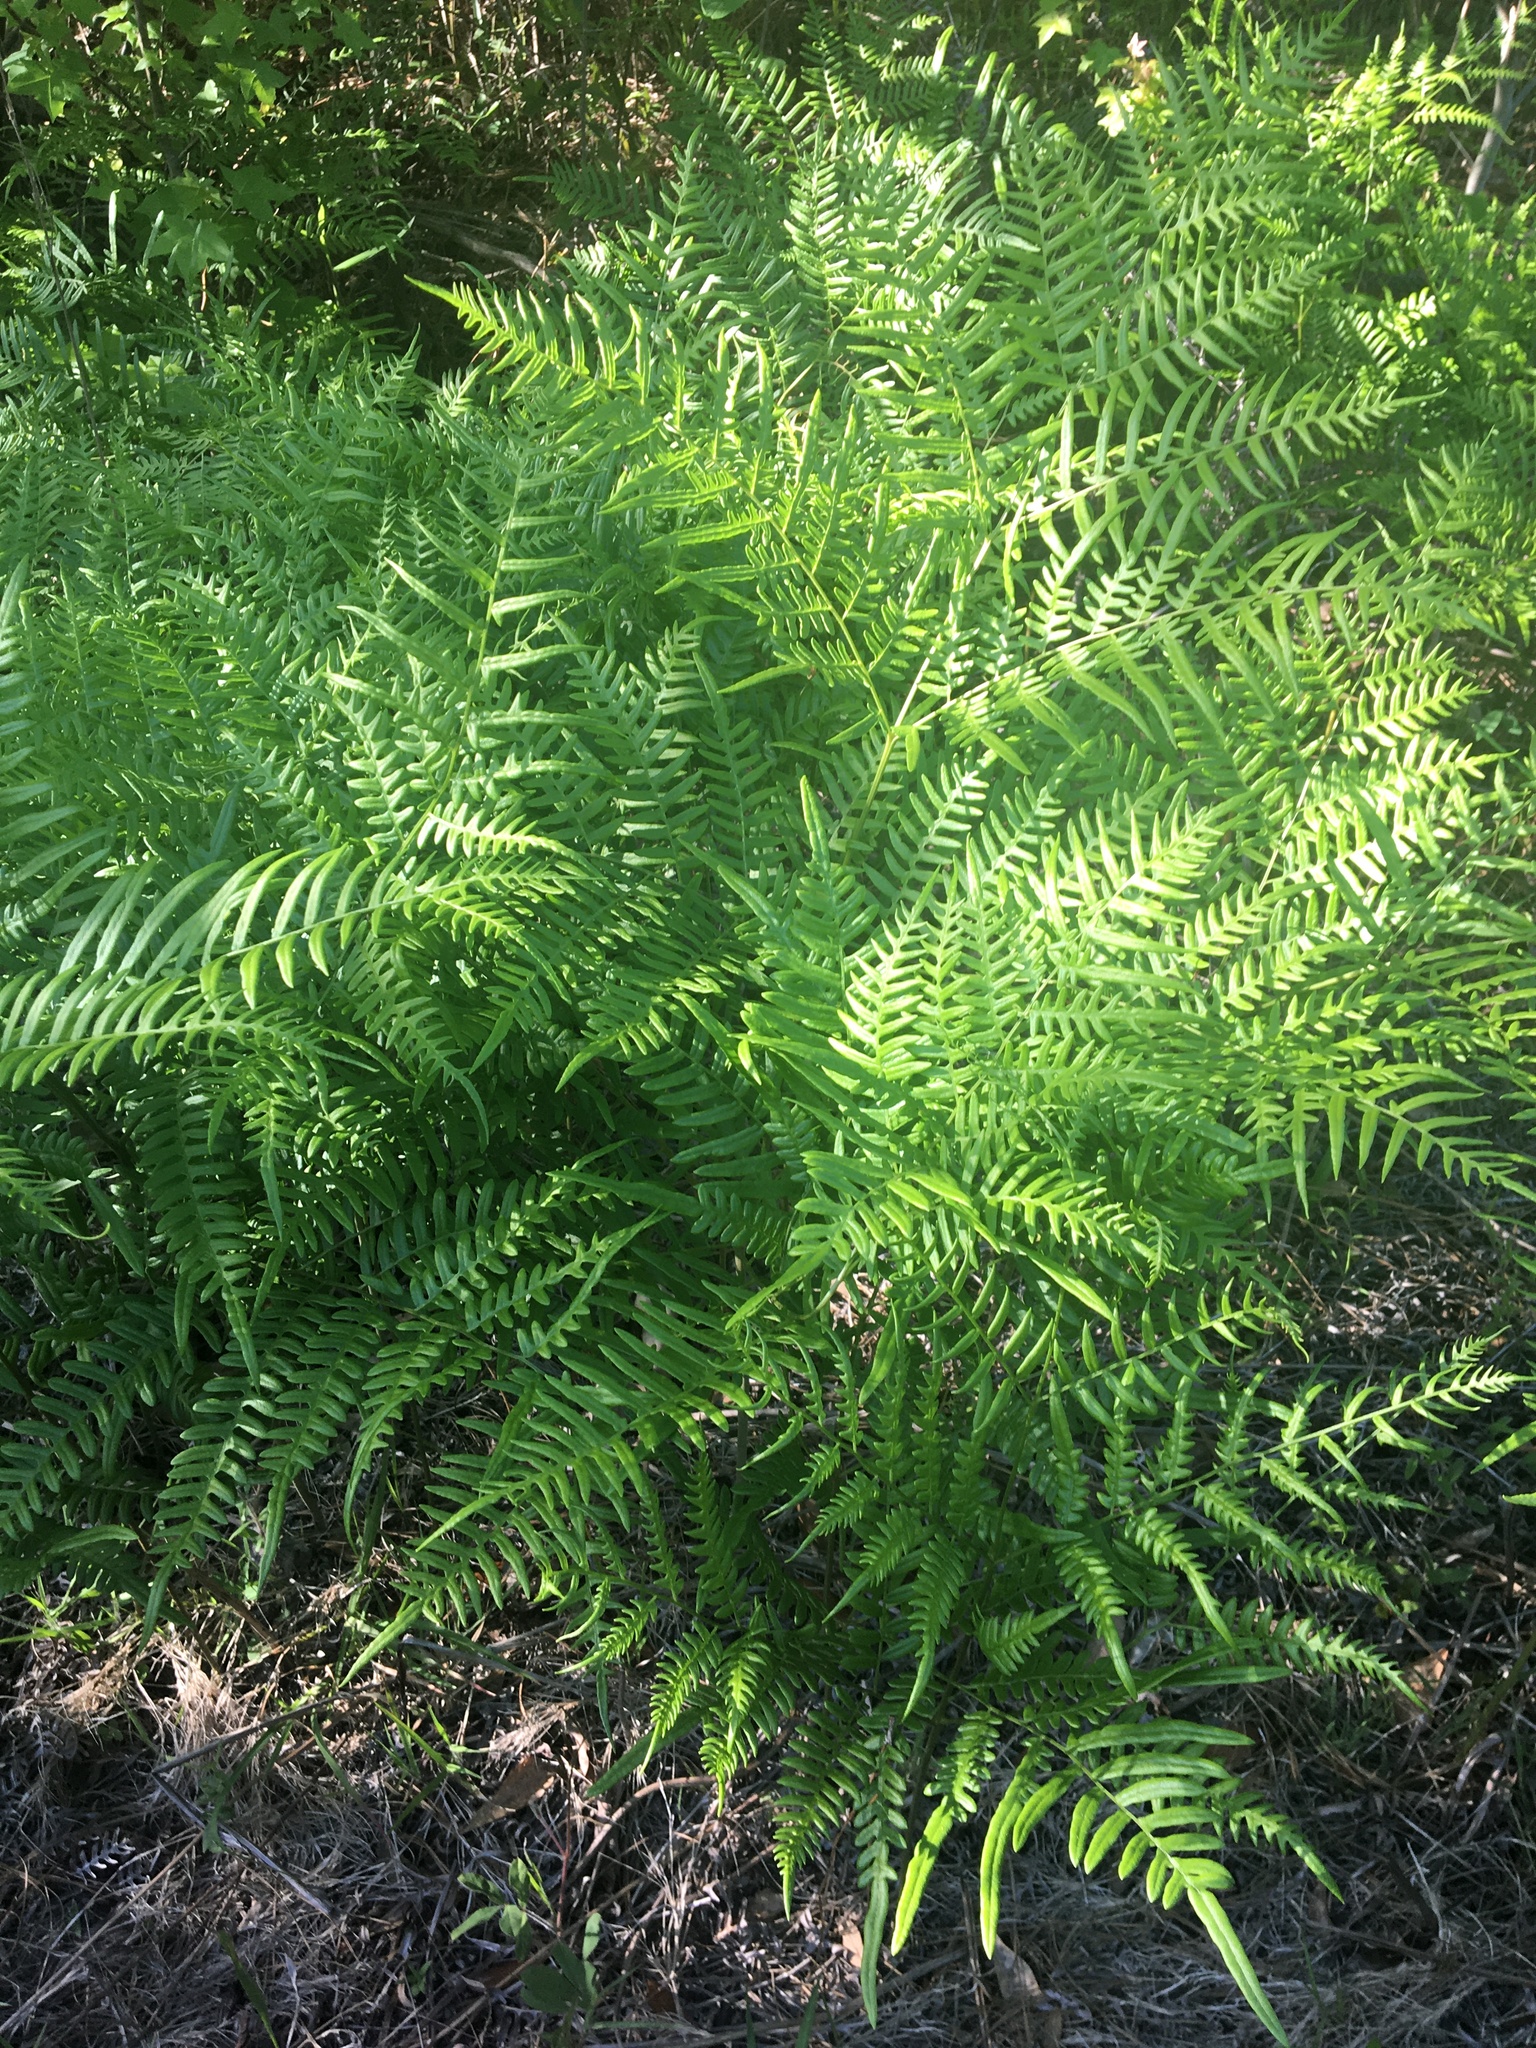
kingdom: Plantae
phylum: Tracheophyta
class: Polypodiopsida
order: Polypodiales
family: Dennstaedtiaceae
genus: Pteridium
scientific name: Pteridium aquilinum
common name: Bracken
